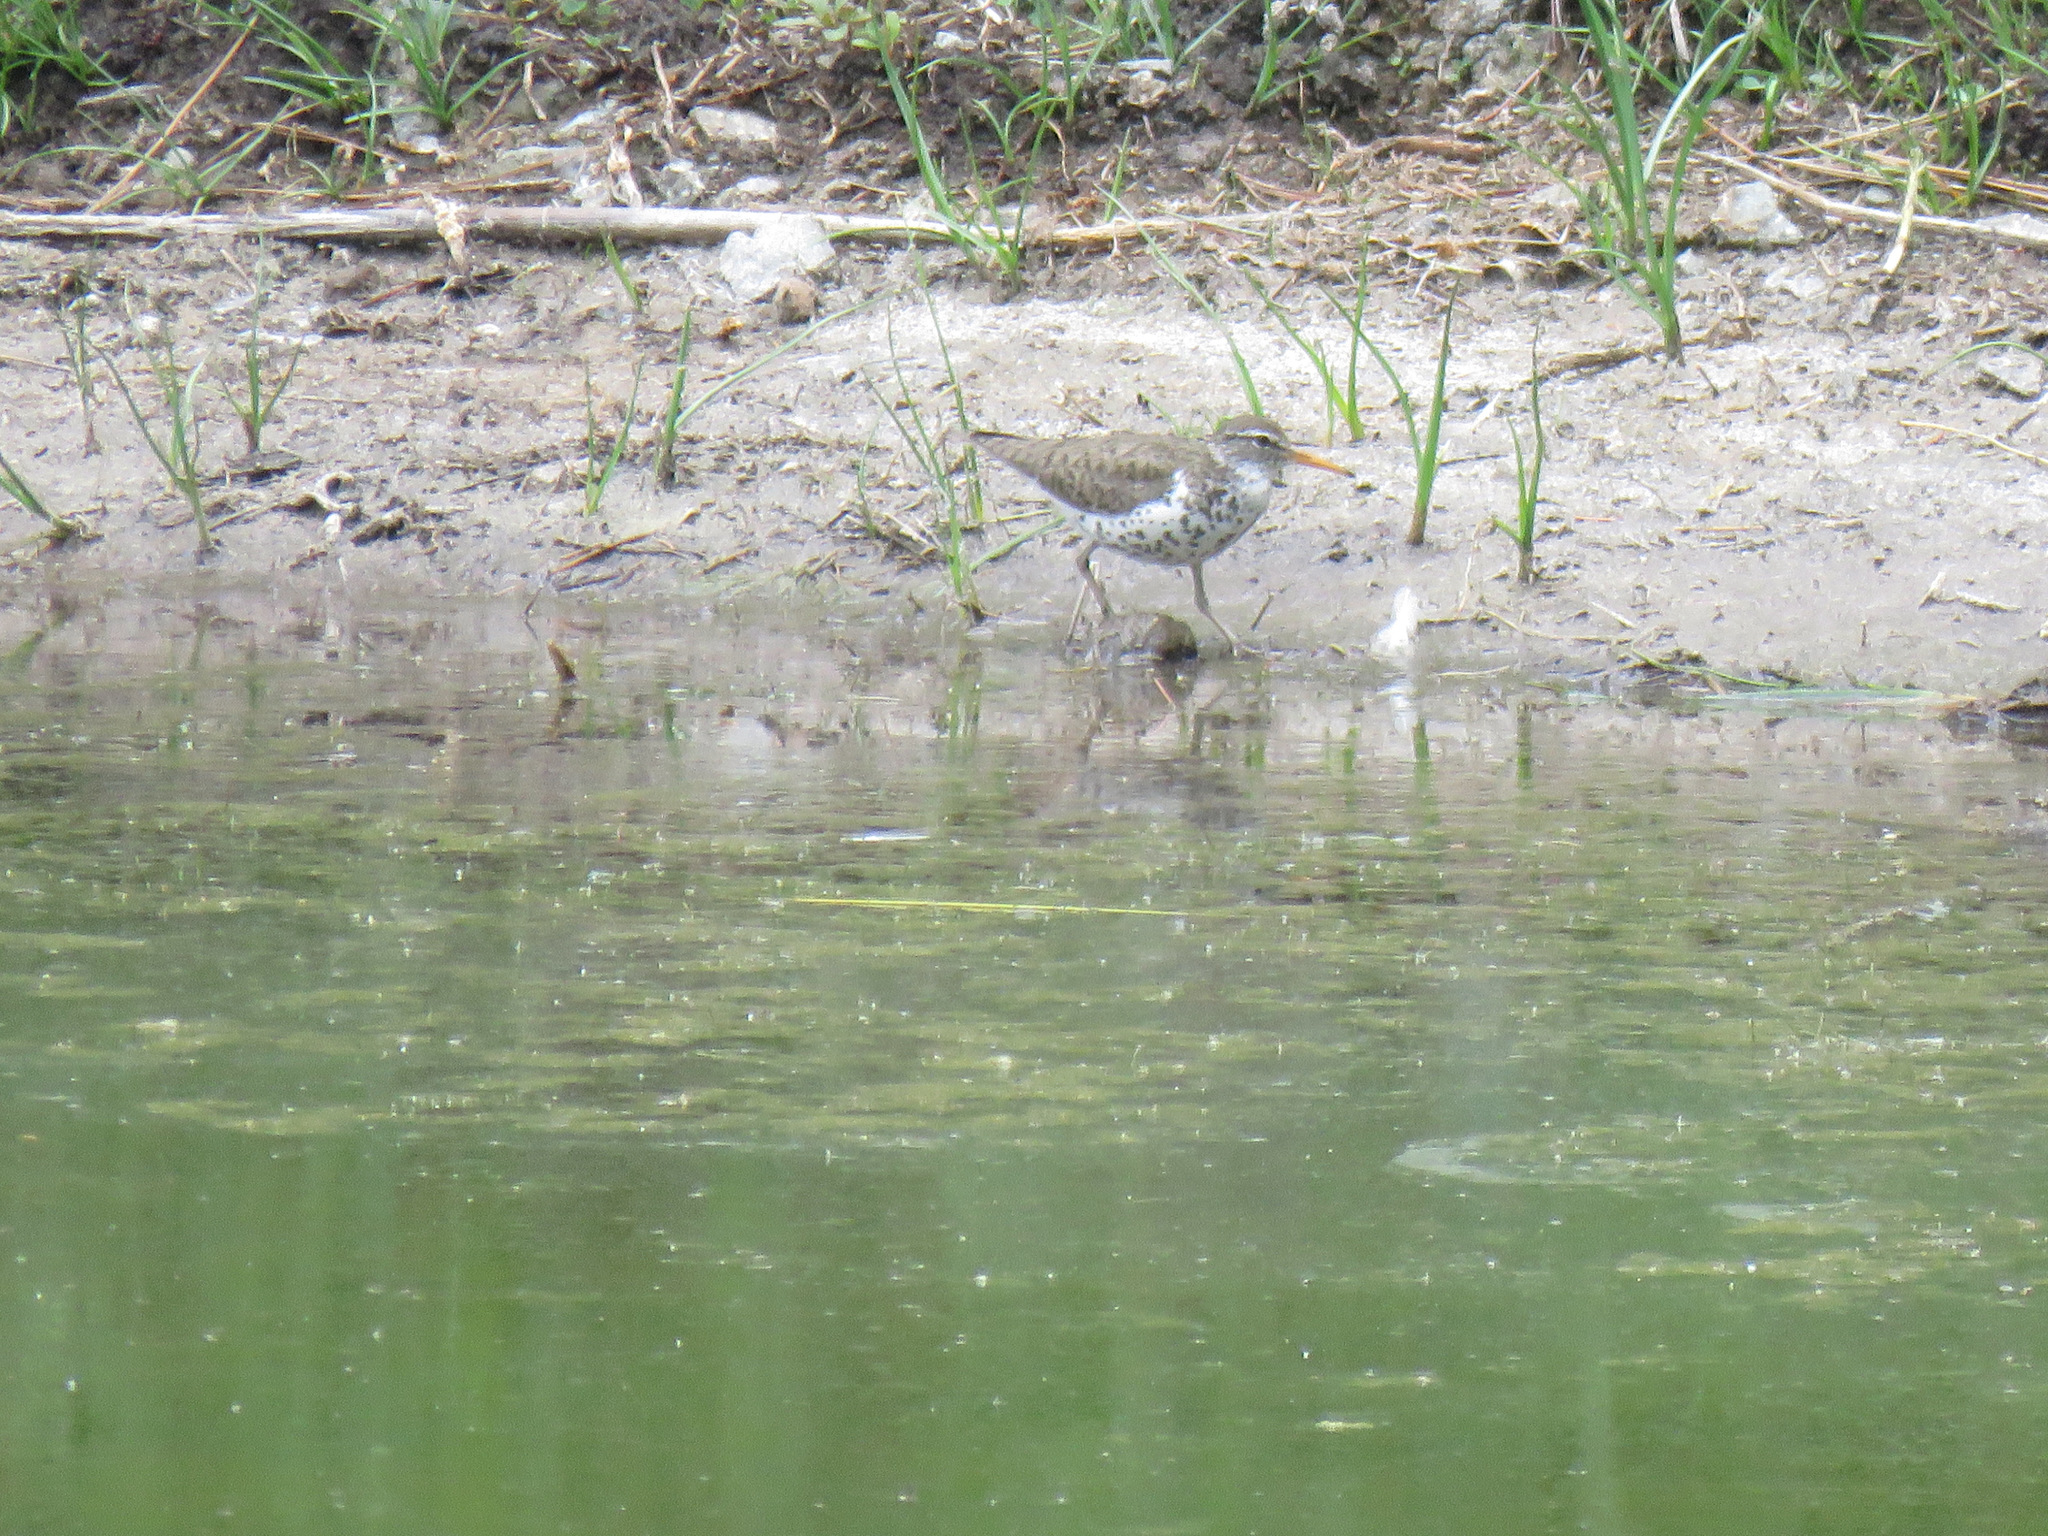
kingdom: Animalia
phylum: Chordata
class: Aves
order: Charadriiformes
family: Scolopacidae
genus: Actitis
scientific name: Actitis macularius
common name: Spotted sandpiper
